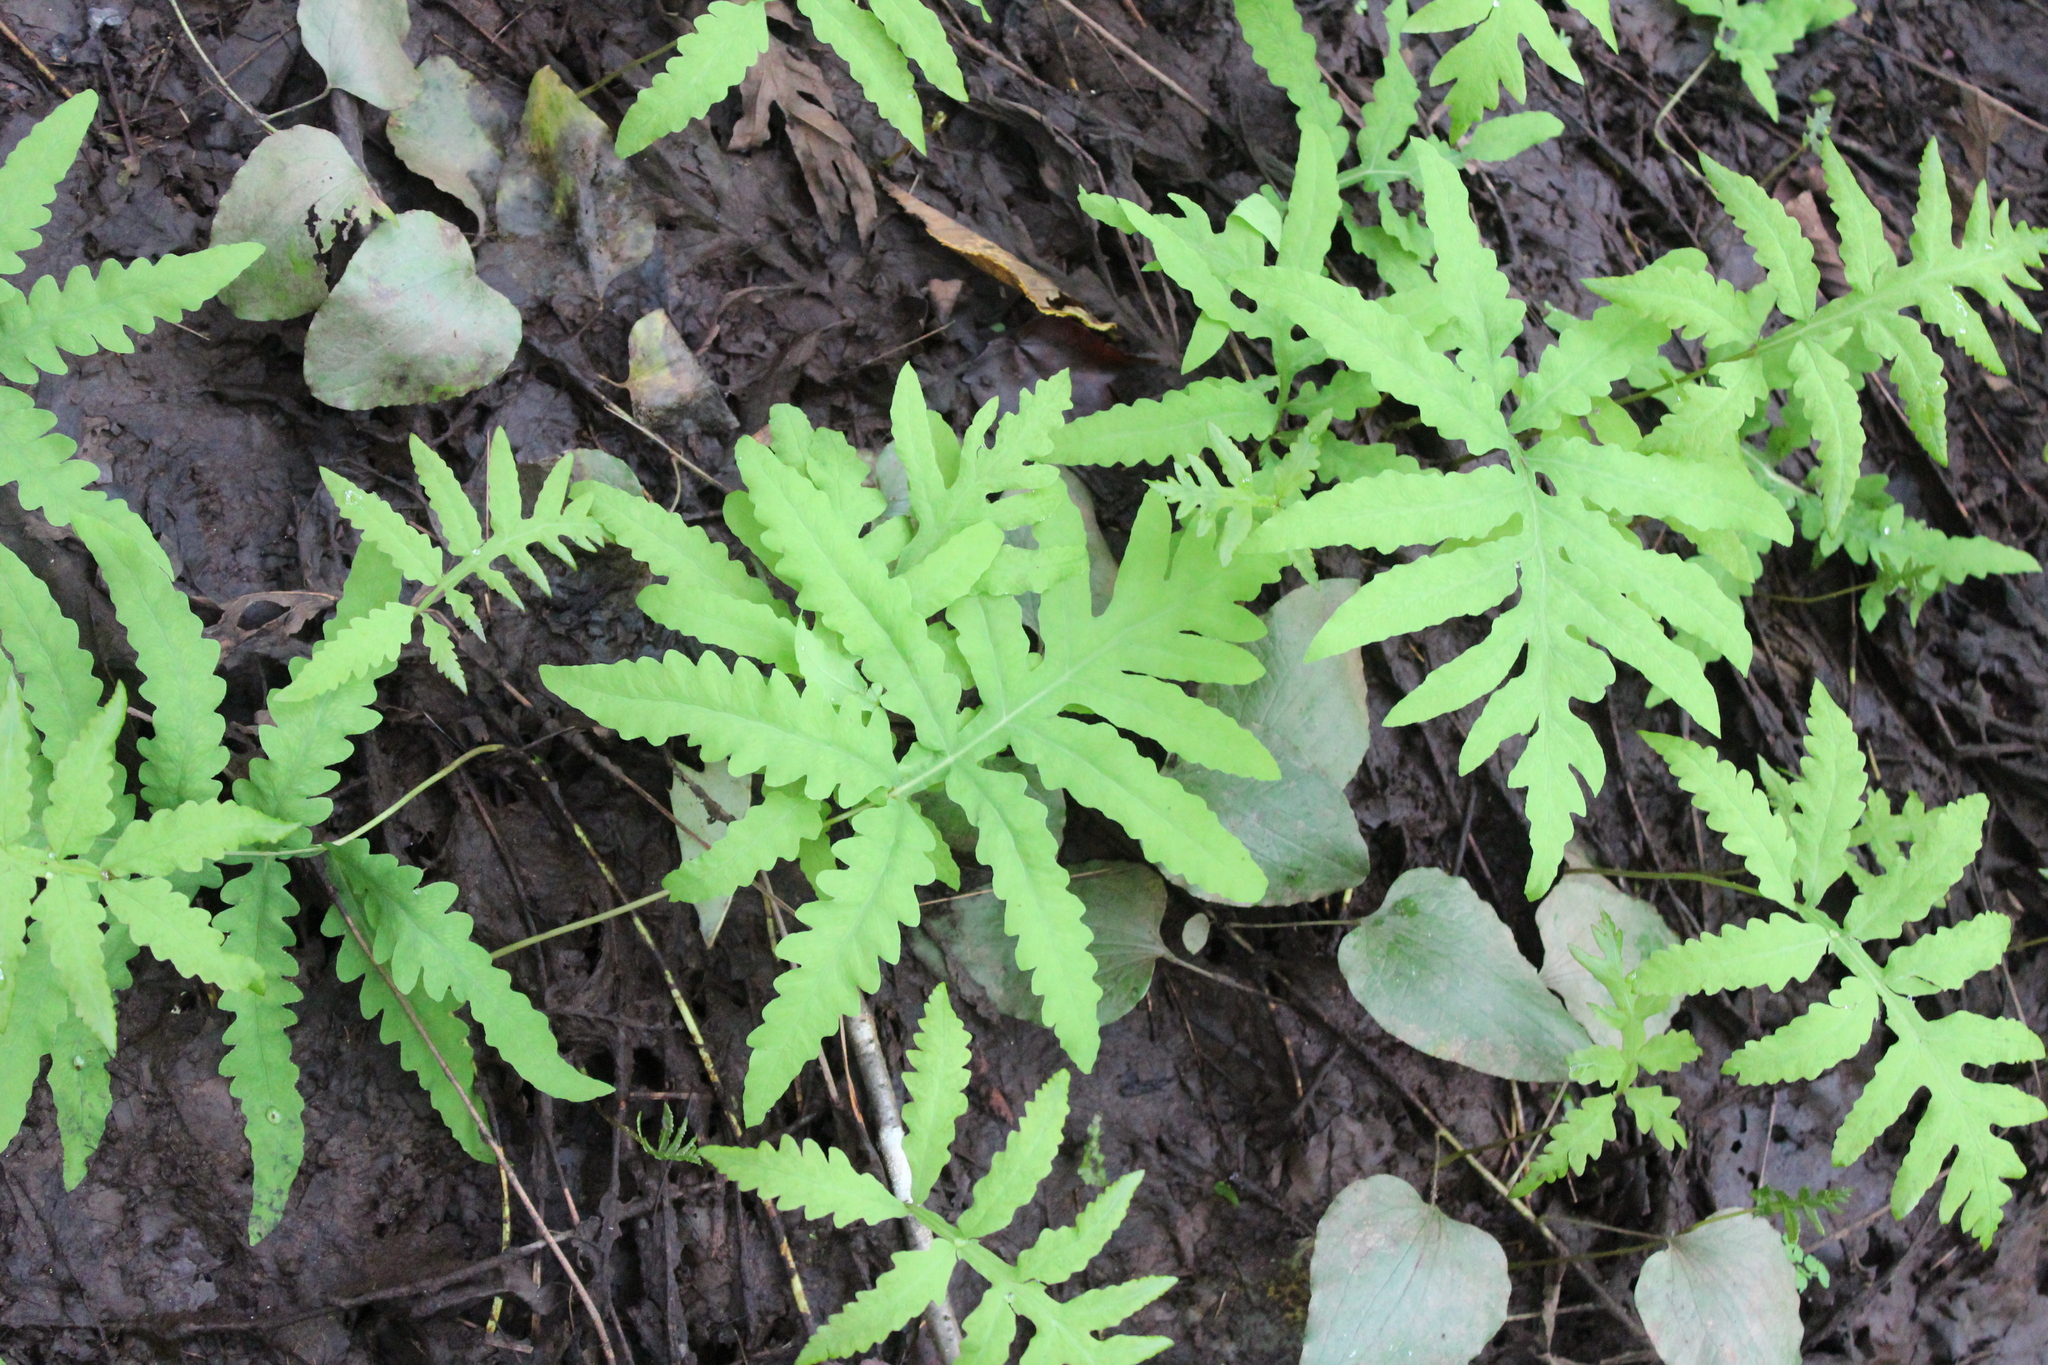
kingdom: Plantae
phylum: Tracheophyta
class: Polypodiopsida
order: Polypodiales
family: Onocleaceae
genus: Onoclea
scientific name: Onoclea sensibilis
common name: Sensitive fern
